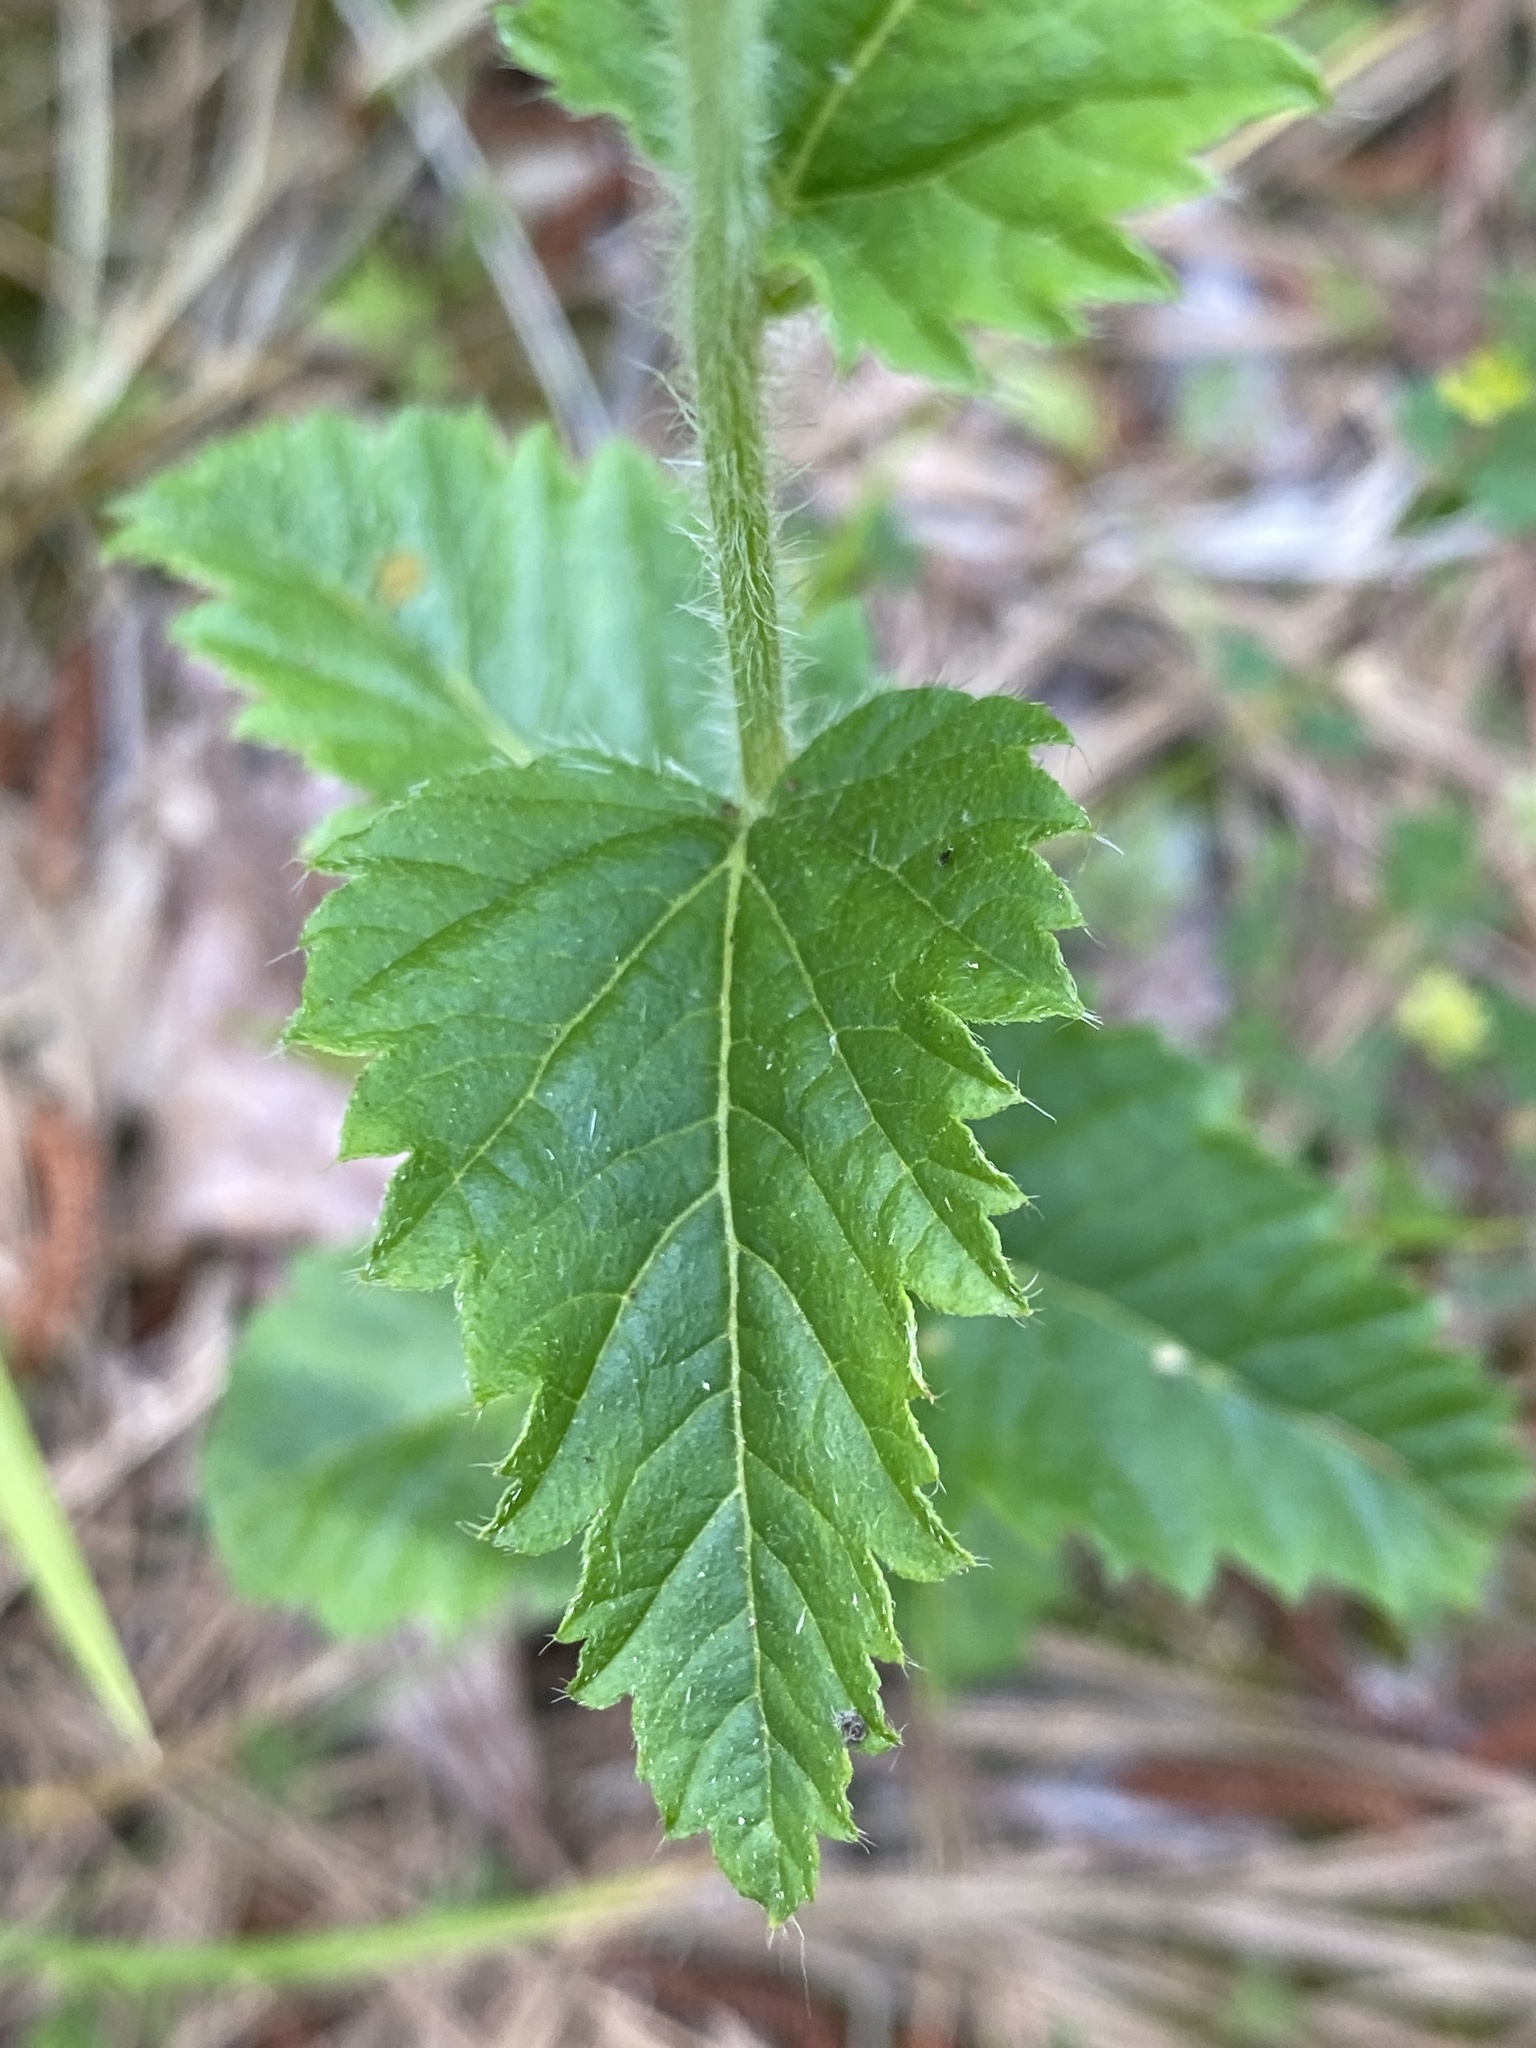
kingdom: Plantae
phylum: Tracheophyta
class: Magnoliopsida
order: Malpighiales
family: Euphorbiaceae
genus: Tragia
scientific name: Tragia urticifolia
